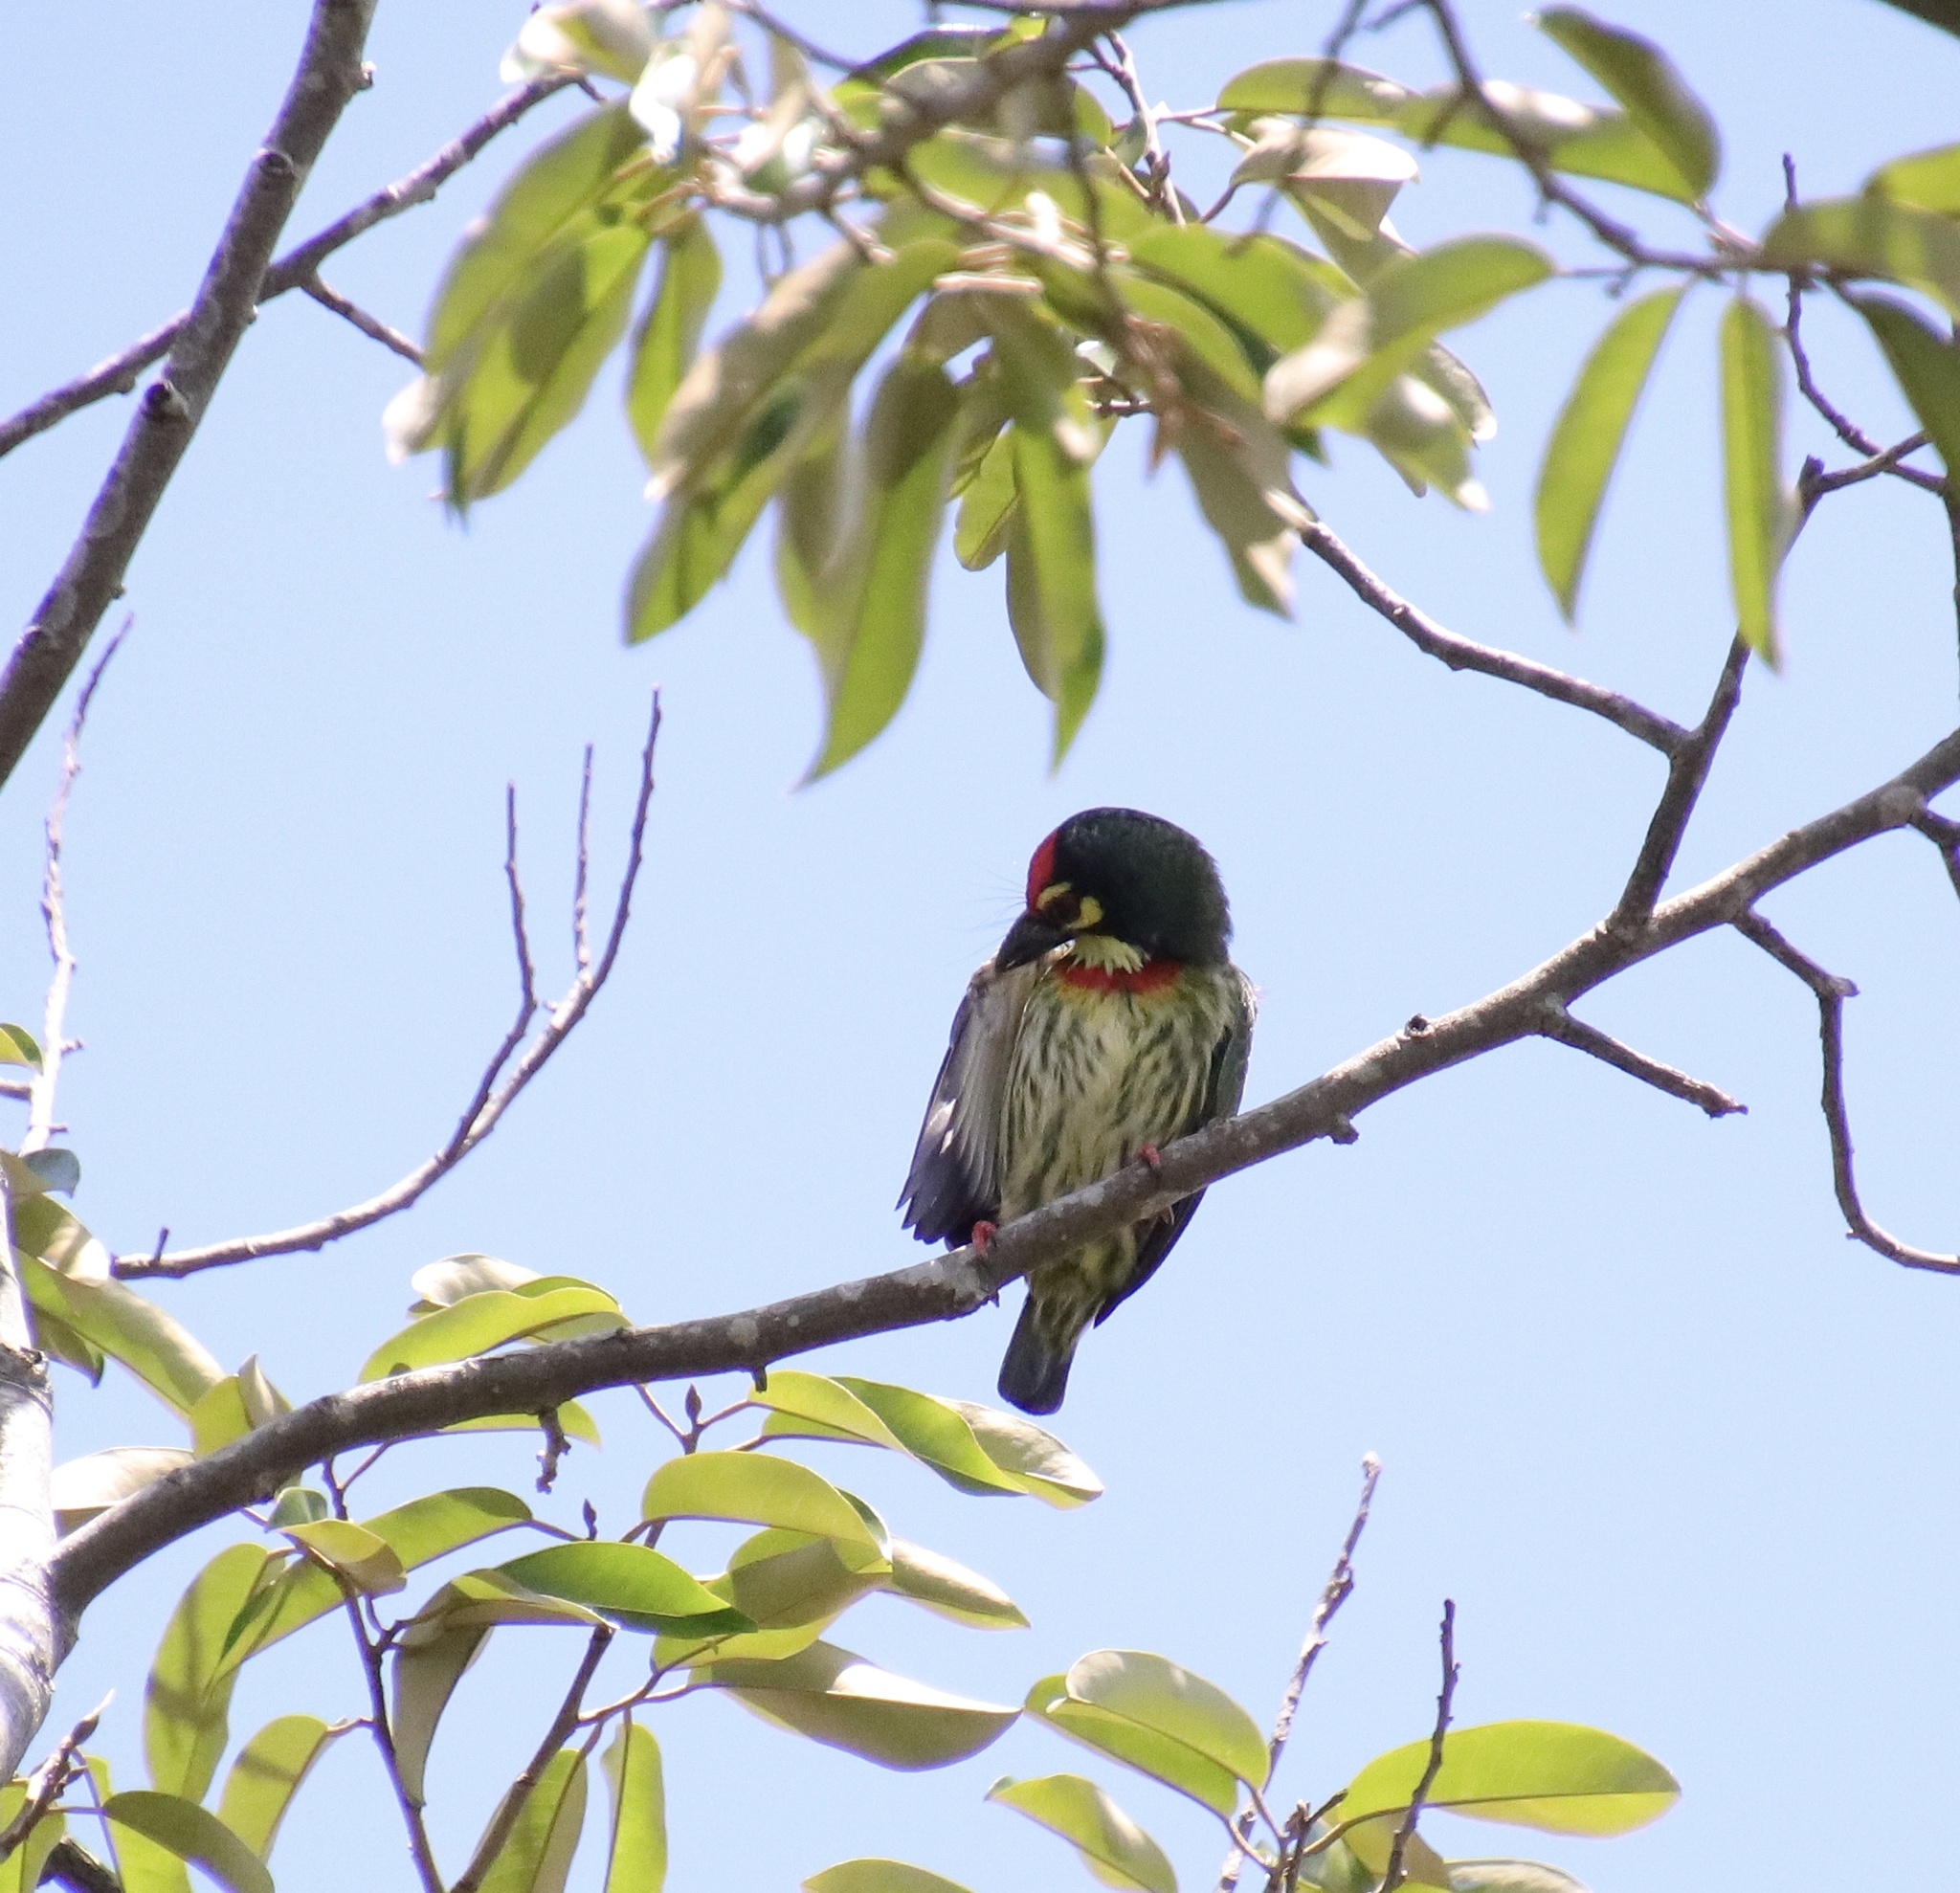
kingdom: Animalia
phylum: Chordata
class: Aves
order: Piciformes
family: Megalaimidae
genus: Psilopogon
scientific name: Psilopogon haemacephalus
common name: Coppersmith barbet
